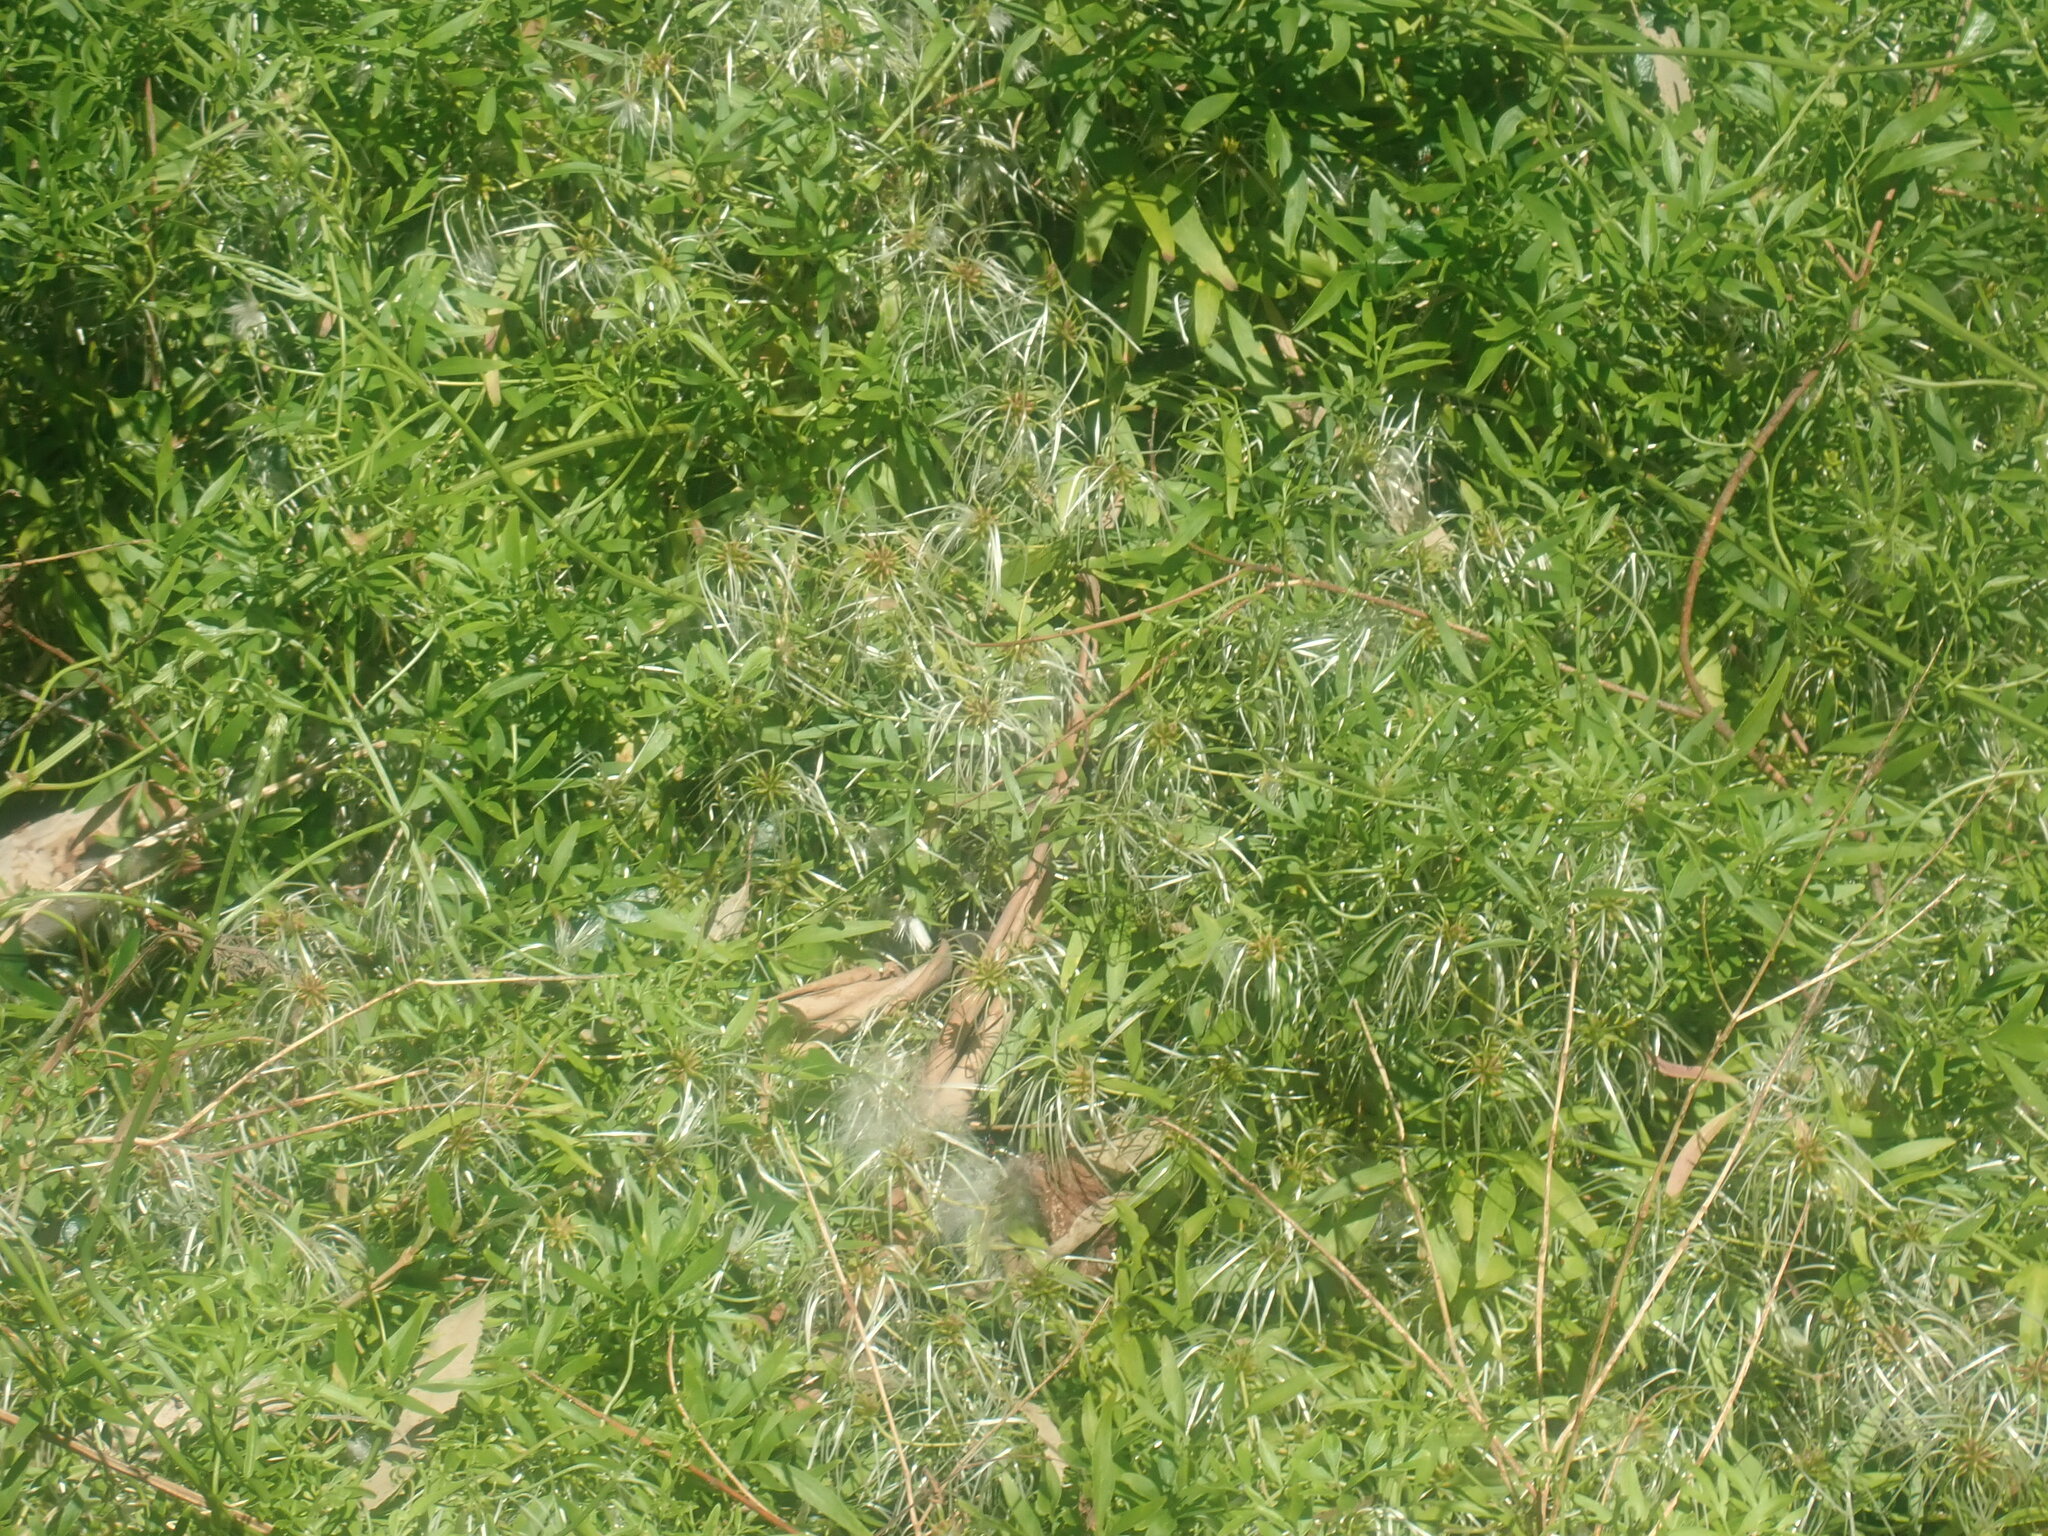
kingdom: Plantae
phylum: Tracheophyta
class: Magnoliopsida
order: Ranunculales
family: Ranunculaceae
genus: Clematis
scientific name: Clematis microphylla
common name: Headachevine
